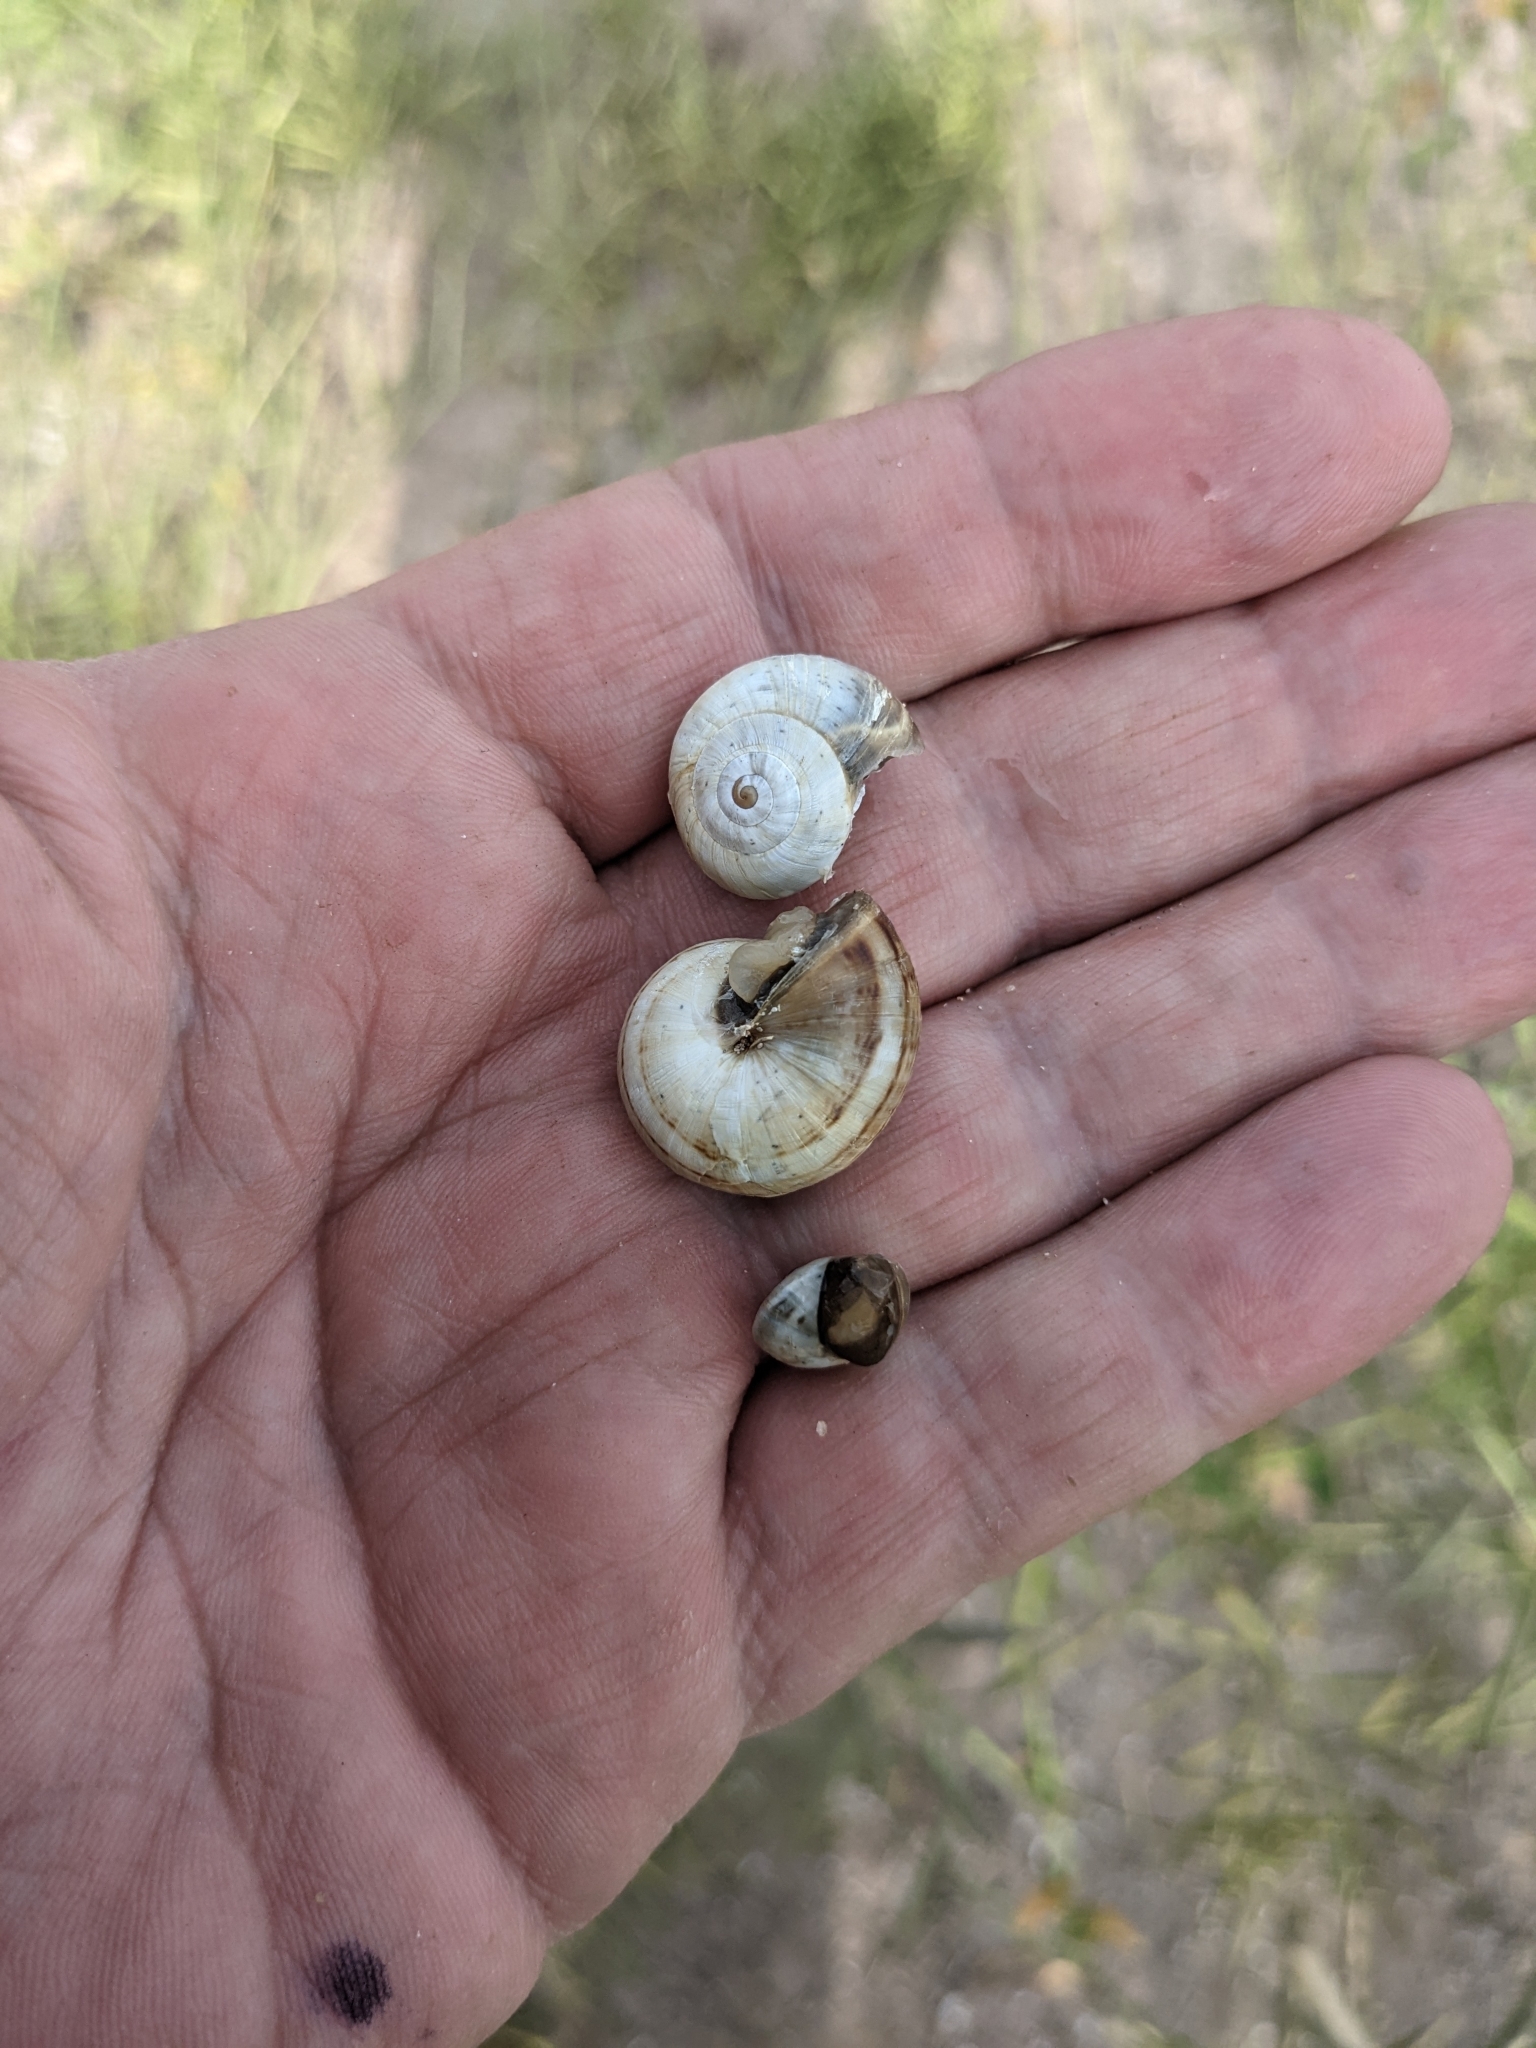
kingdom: Animalia
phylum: Mollusca
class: Gastropoda
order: Stylommatophora
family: Helicidae
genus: Theba
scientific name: Theba pisana
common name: White snail
